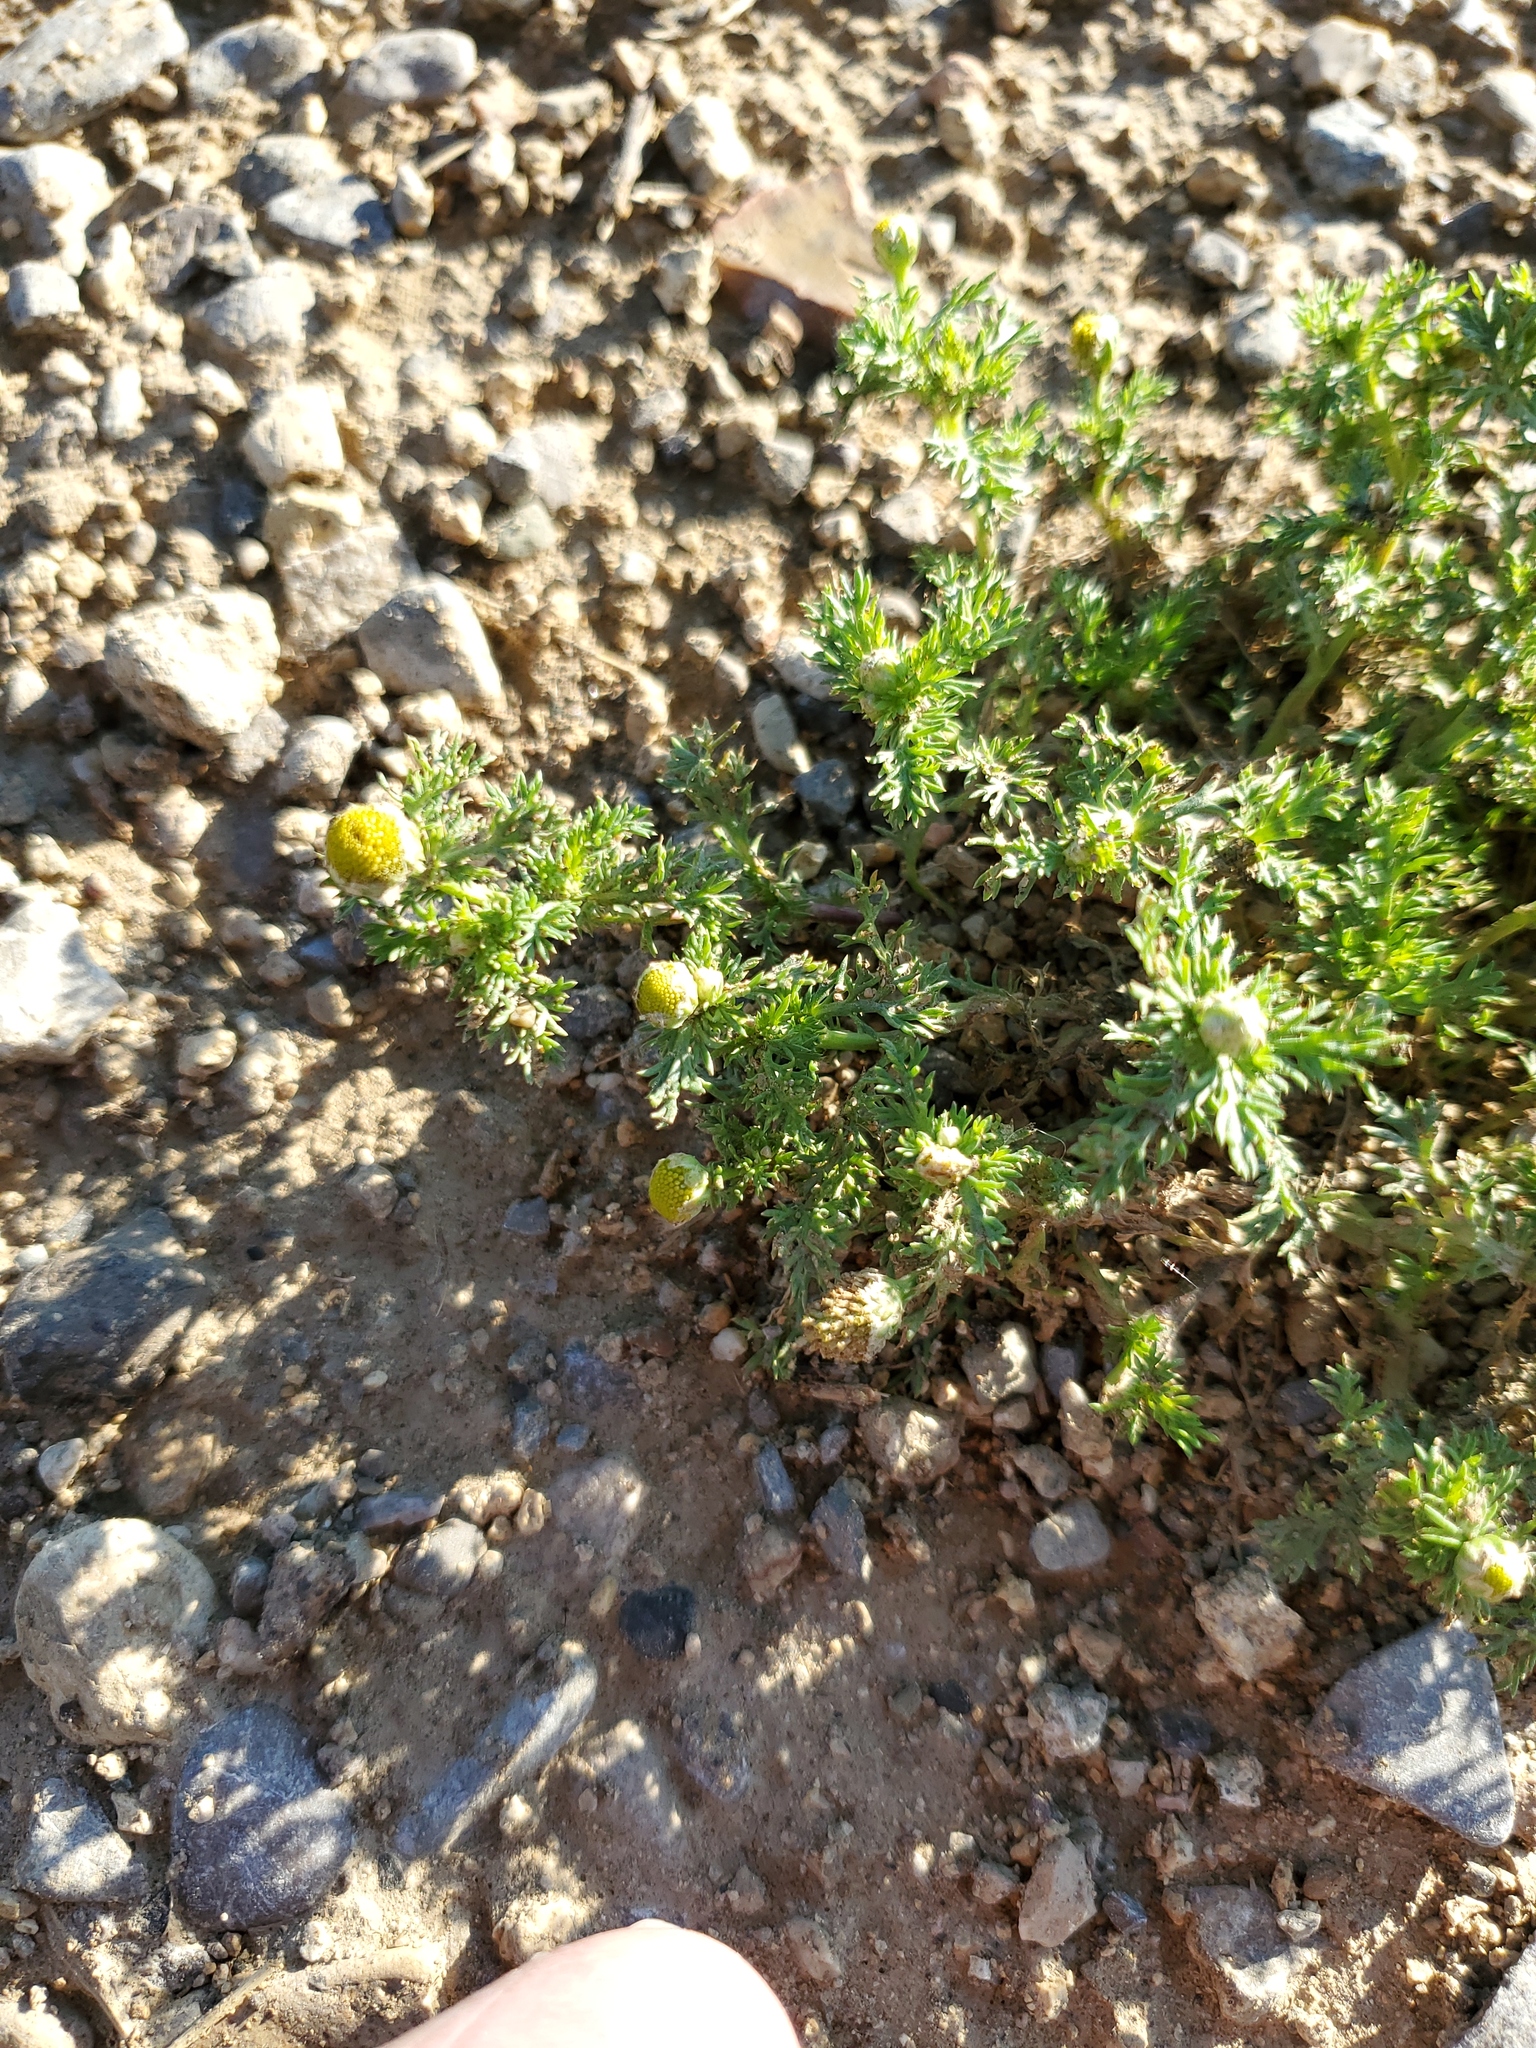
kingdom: Plantae
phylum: Tracheophyta
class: Magnoliopsida
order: Asterales
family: Asteraceae
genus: Matricaria
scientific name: Matricaria discoidea
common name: Disc mayweed
